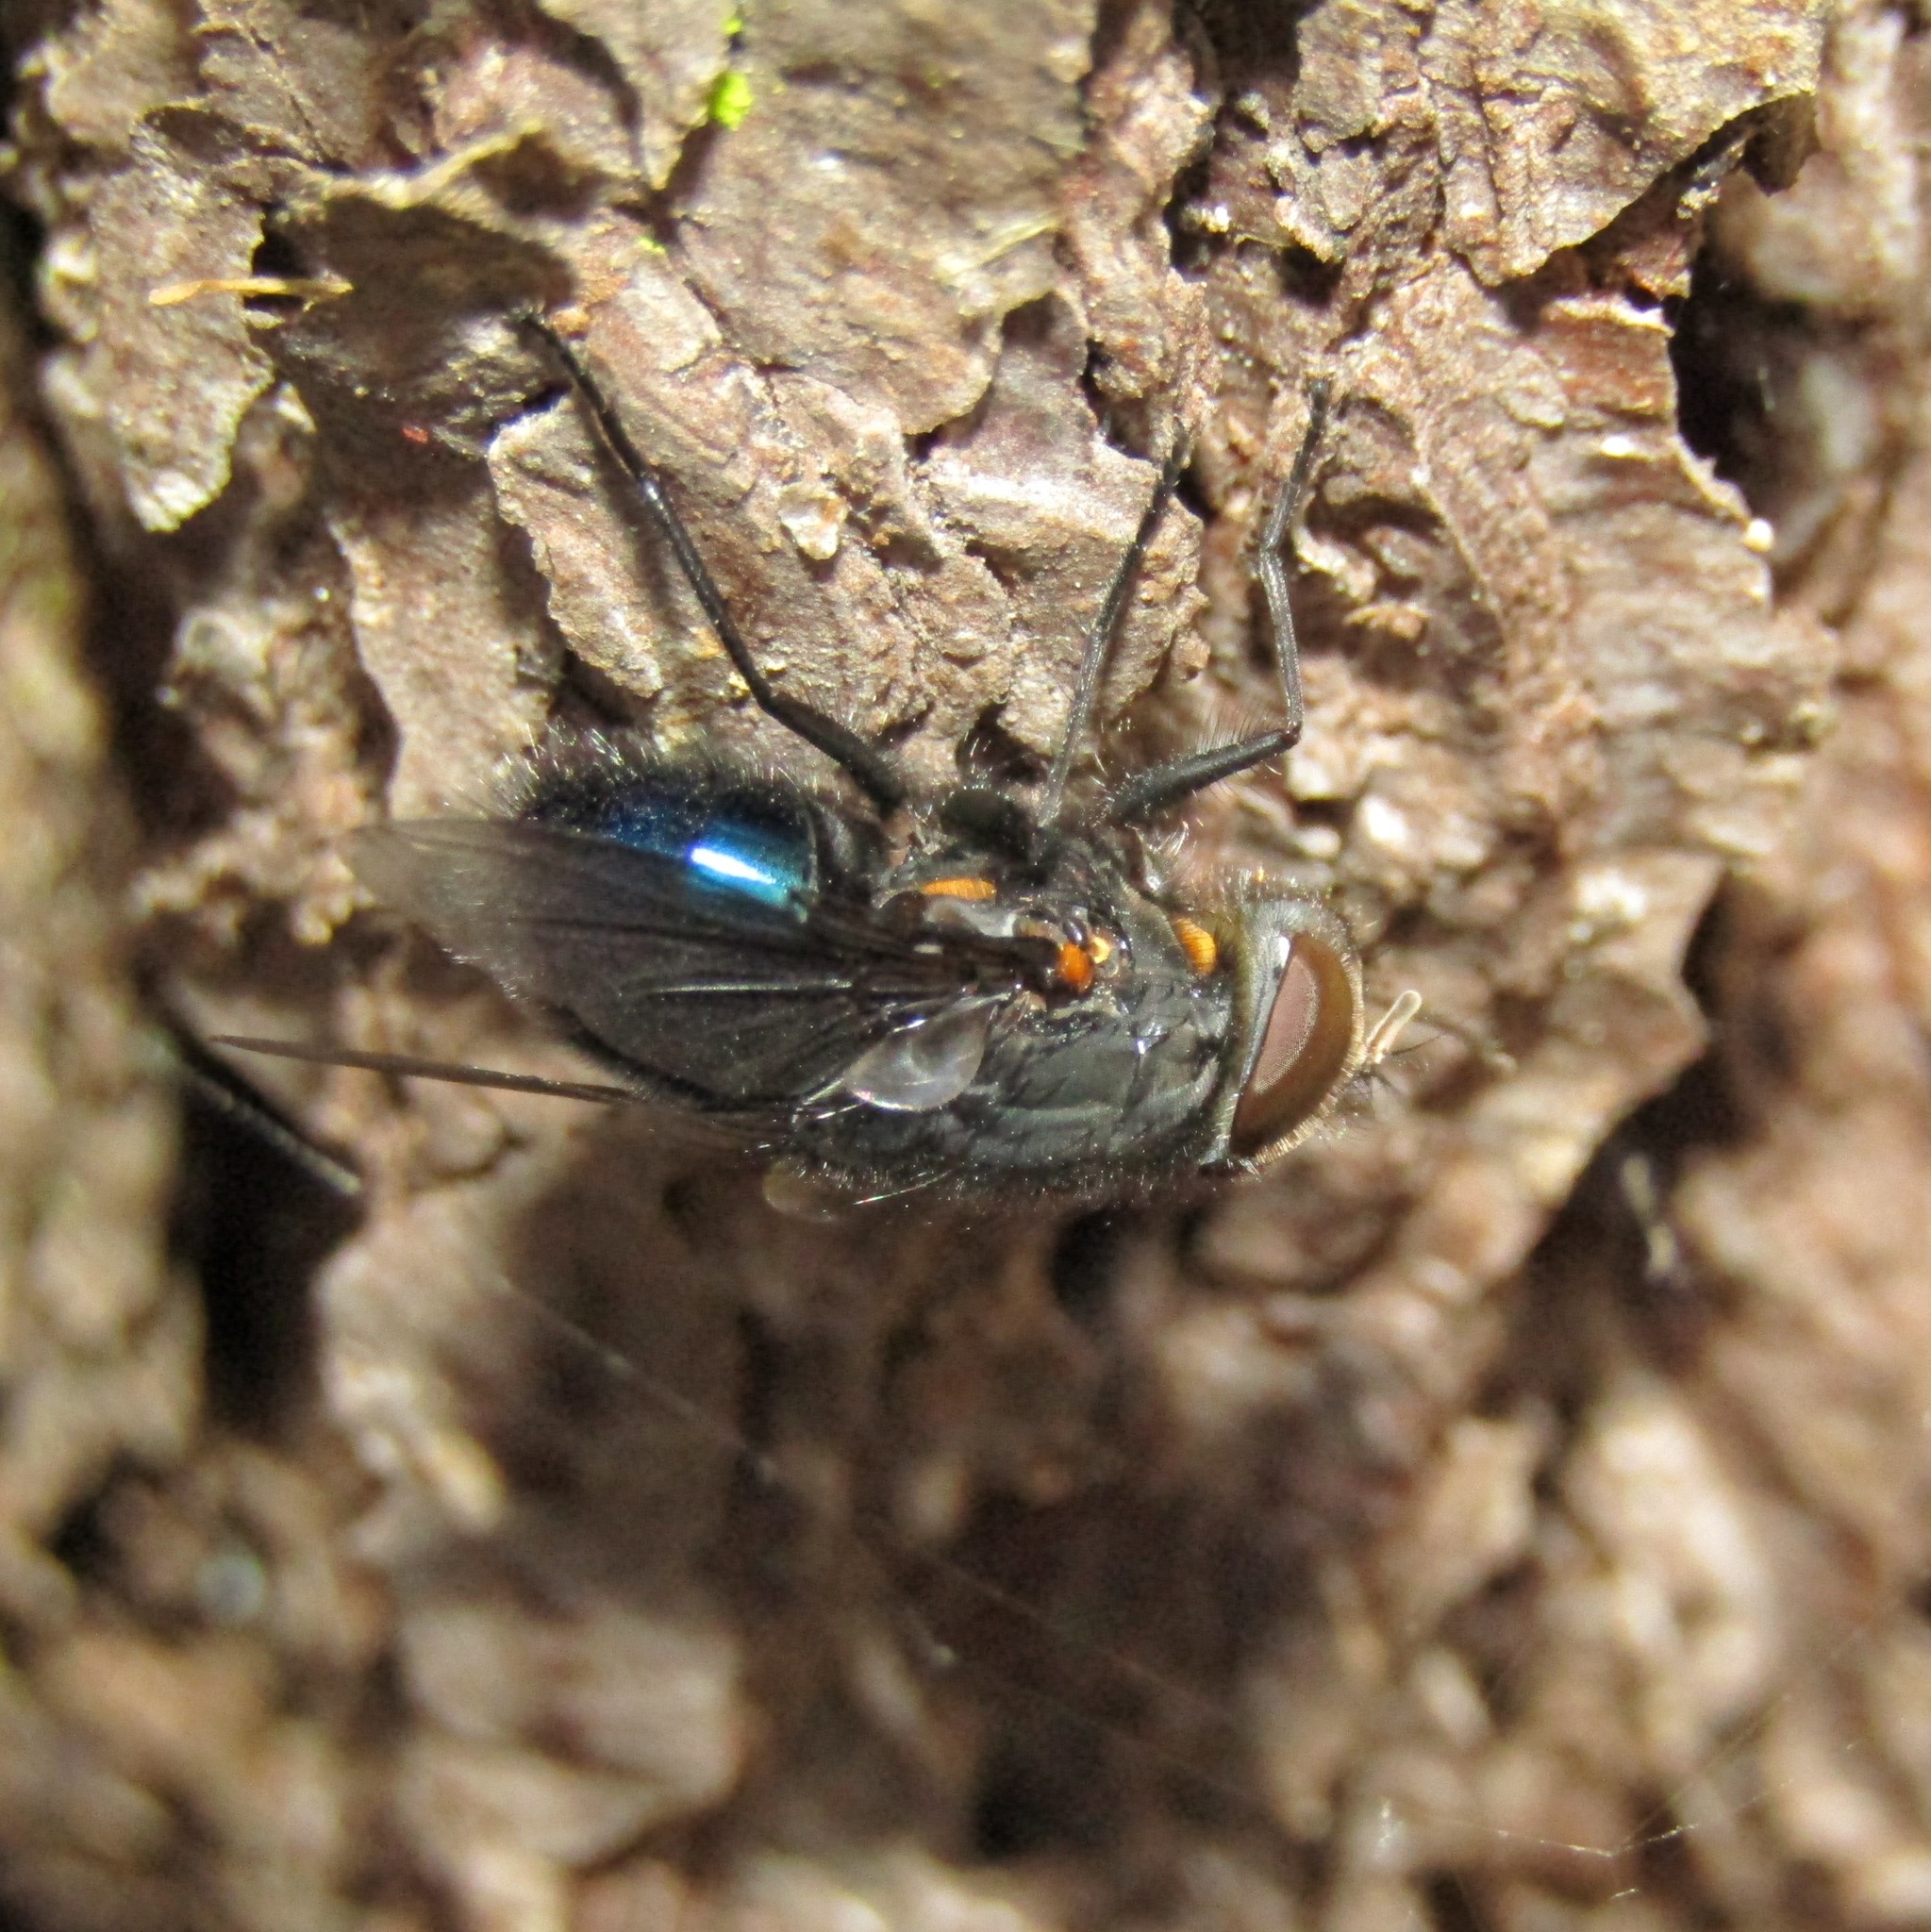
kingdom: Animalia
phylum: Arthropoda
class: Insecta
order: Diptera
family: Calliphoridae
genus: Calliphora
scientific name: Calliphora quadrimaculata
